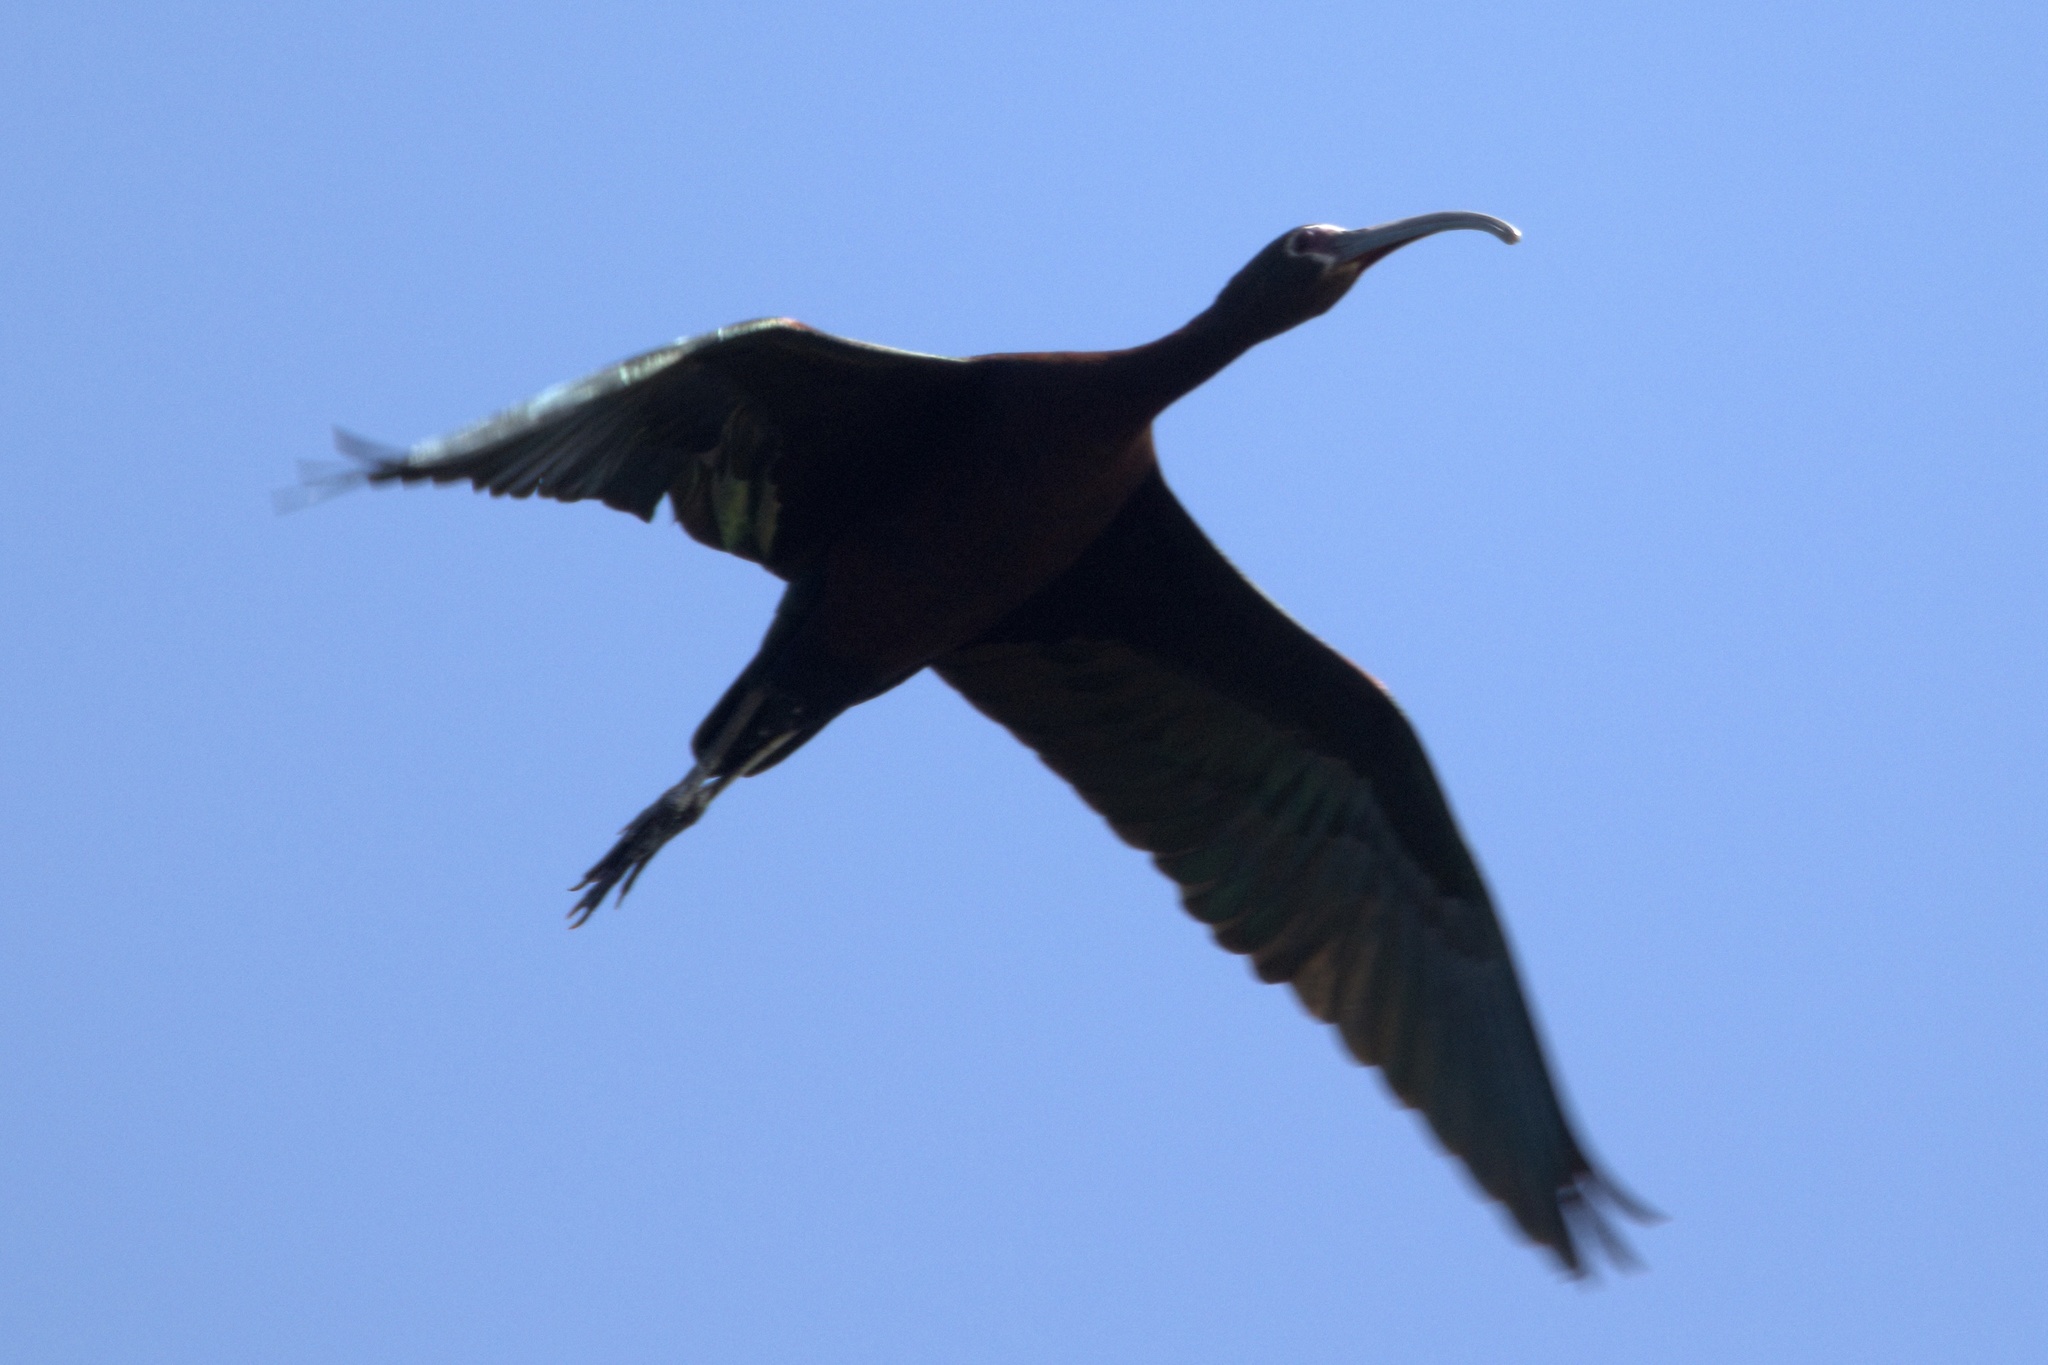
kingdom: Animalia
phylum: Chordata
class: Aves
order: Pelecaniformes
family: Threskiornithidae
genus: Plegadis
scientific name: Plegadis chihi
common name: White-faced ibis
